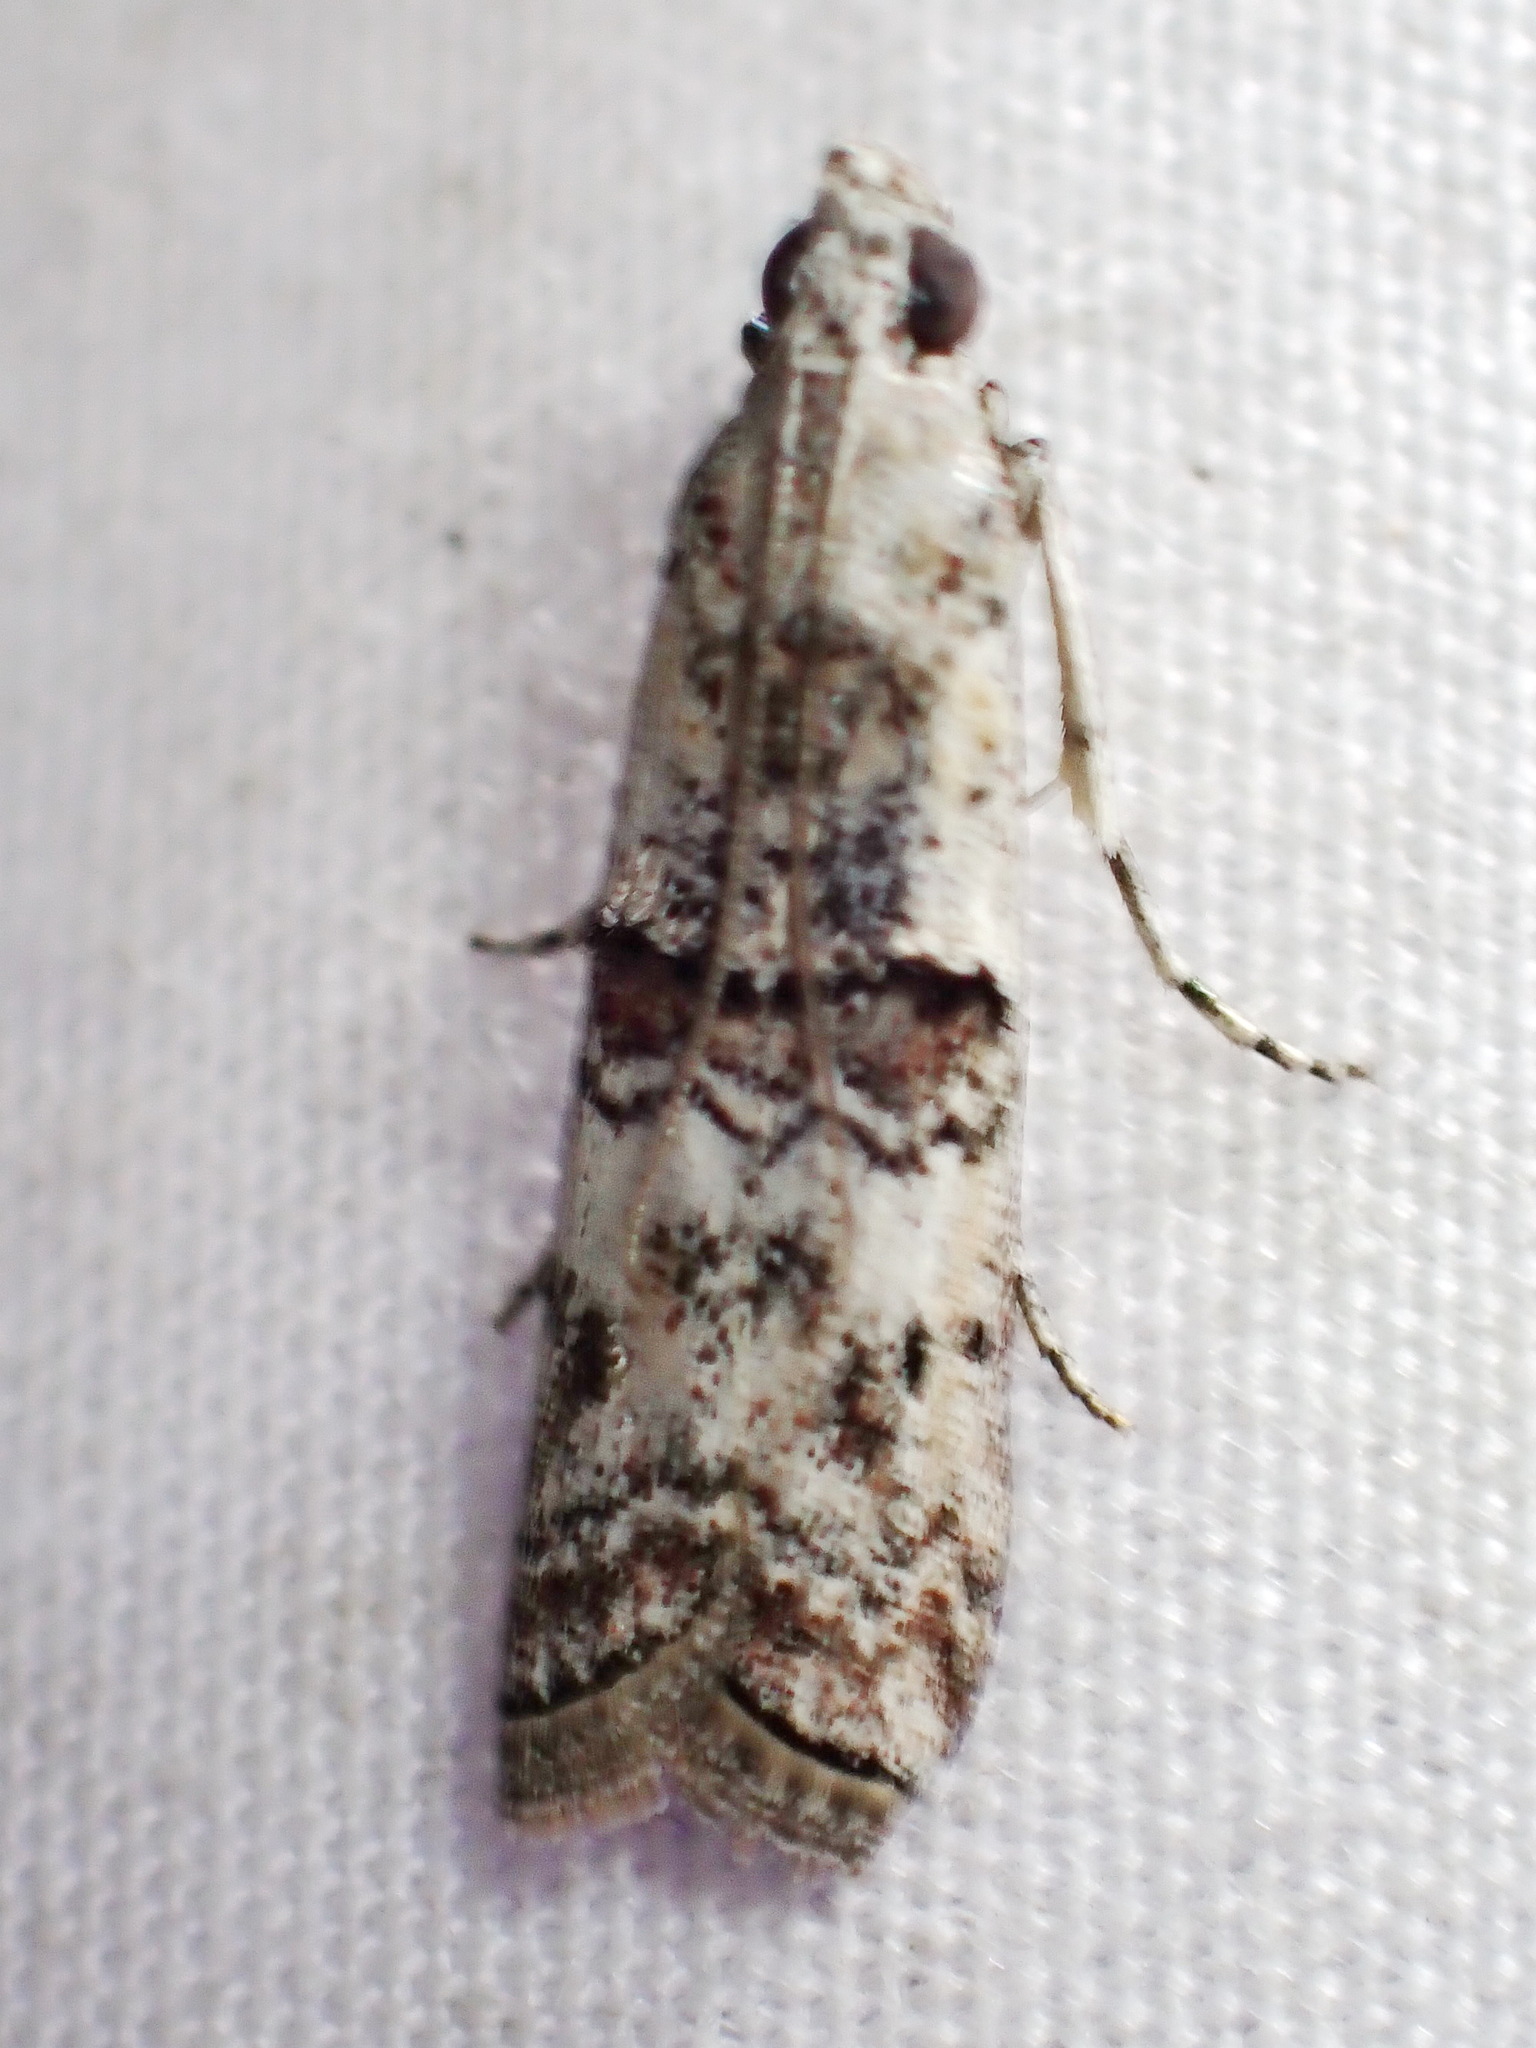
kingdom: Animalia
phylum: Arthropoda
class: Insecta
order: Lepidoptera
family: Pyralidae
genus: Zamagiria
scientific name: Zamagiria australella
